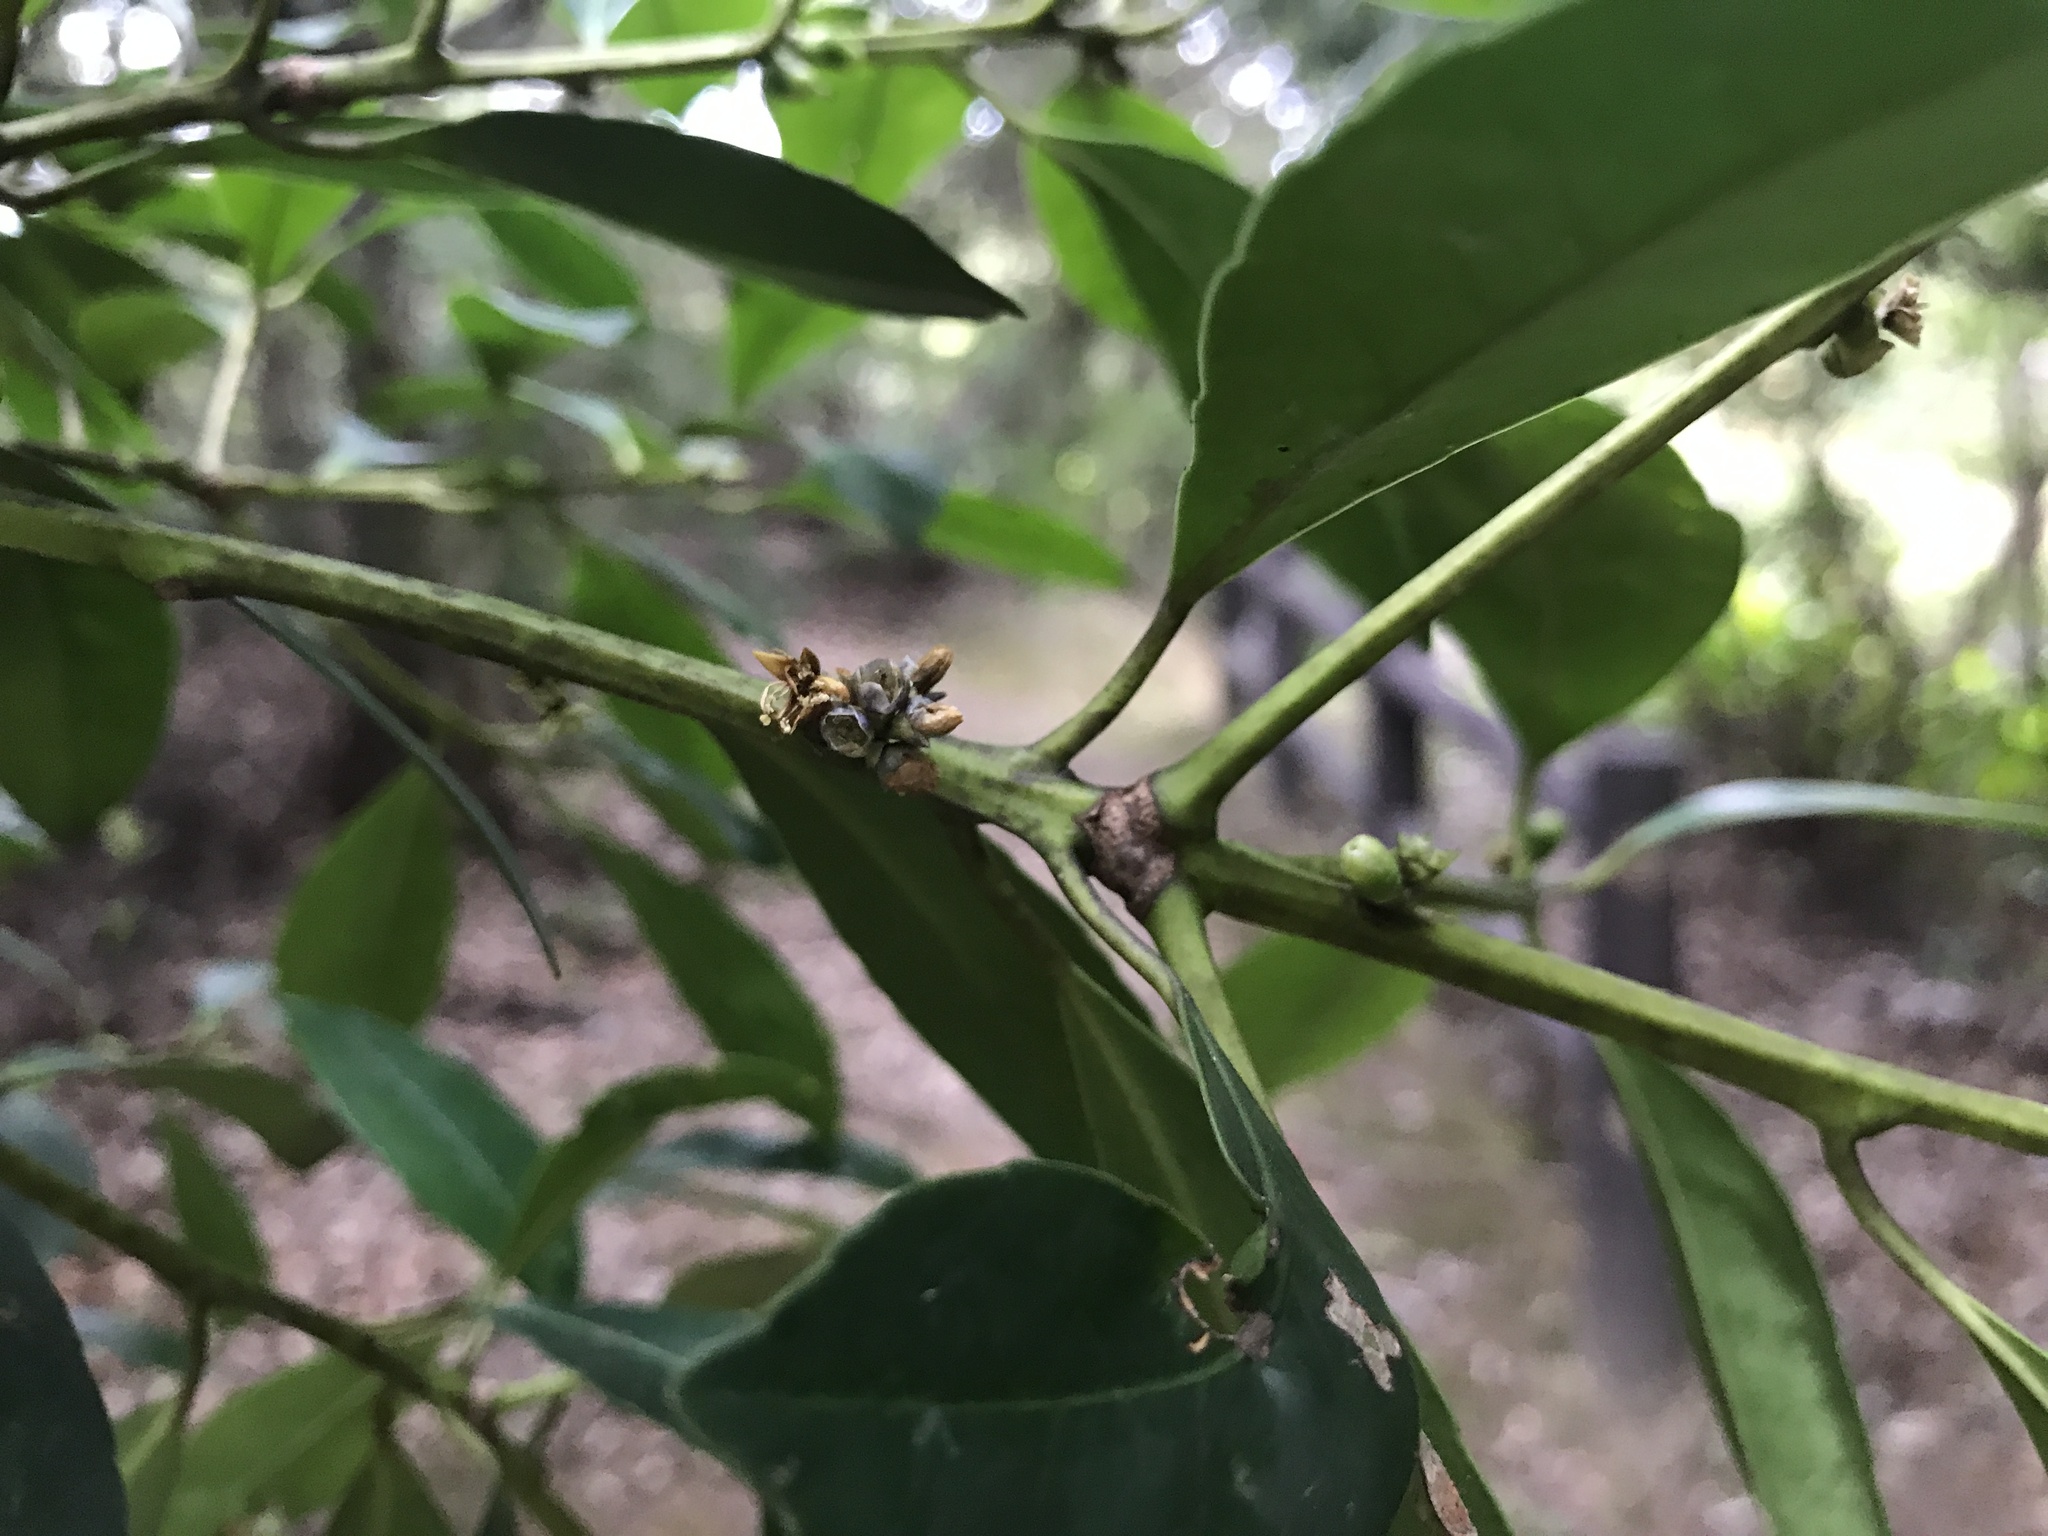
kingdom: Plantae
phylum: Tracheophyta
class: Magnoliopsida
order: Ericales
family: Symplocaceae
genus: Symplocos
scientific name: Symplocos nakaharae
